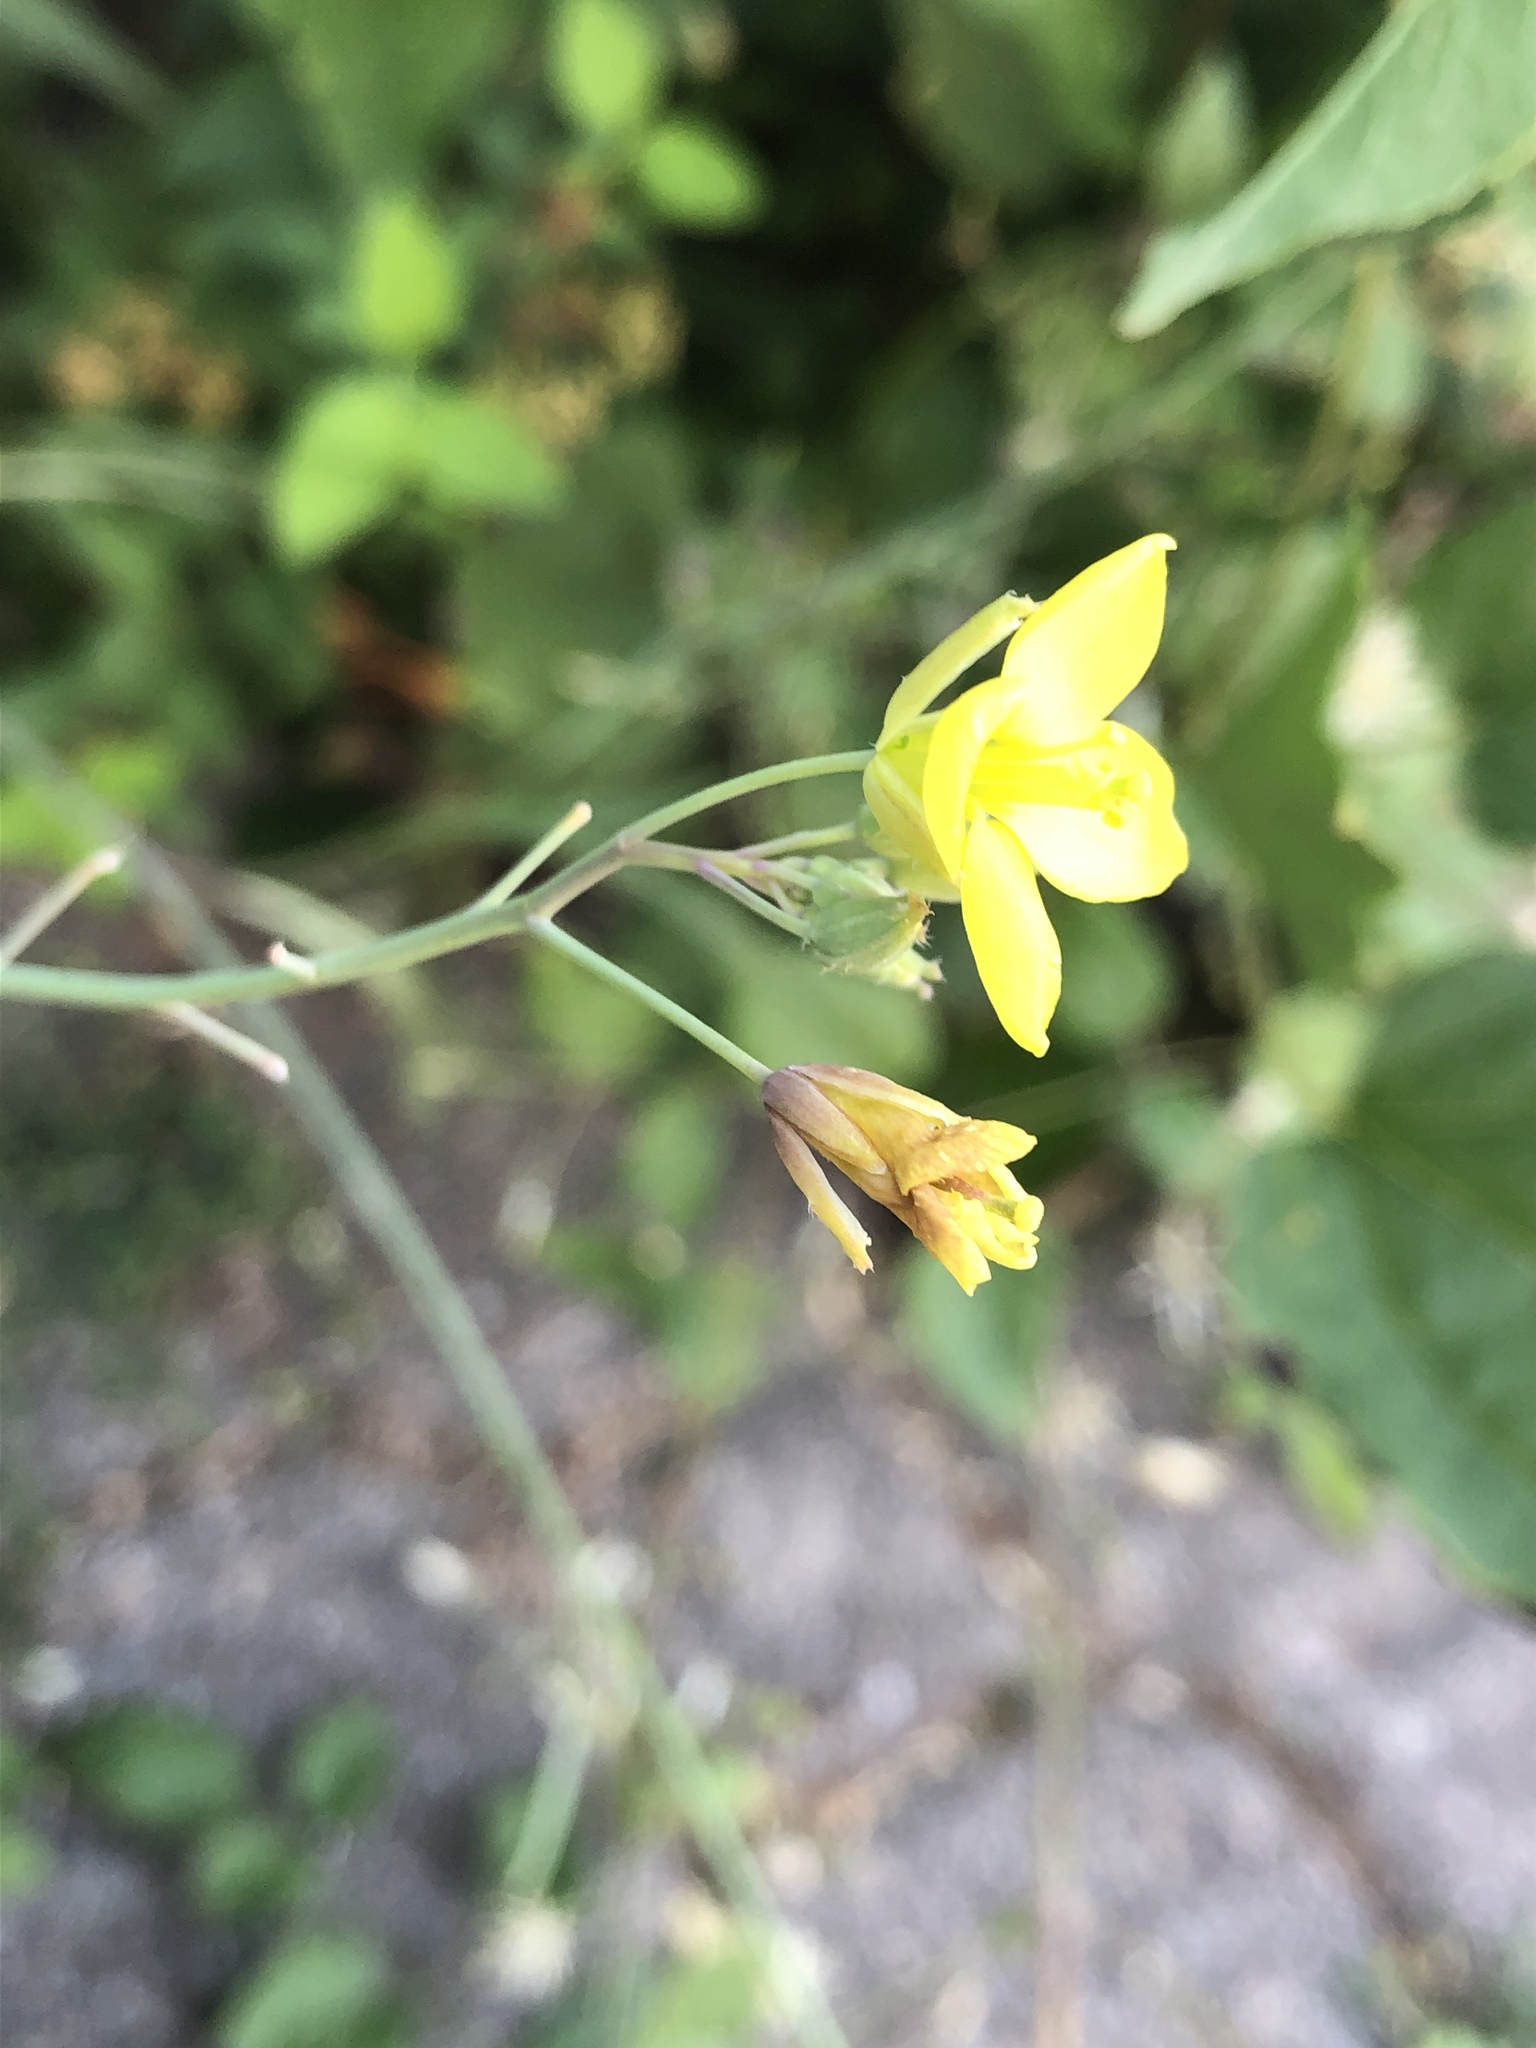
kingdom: Plantae
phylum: Tracheophyta
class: Magnoliopsida
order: Brassicales
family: Brassicaceae
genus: Diplotaxis
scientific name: Diplotaxis tenuifolia
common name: Perennial wall-rocket
